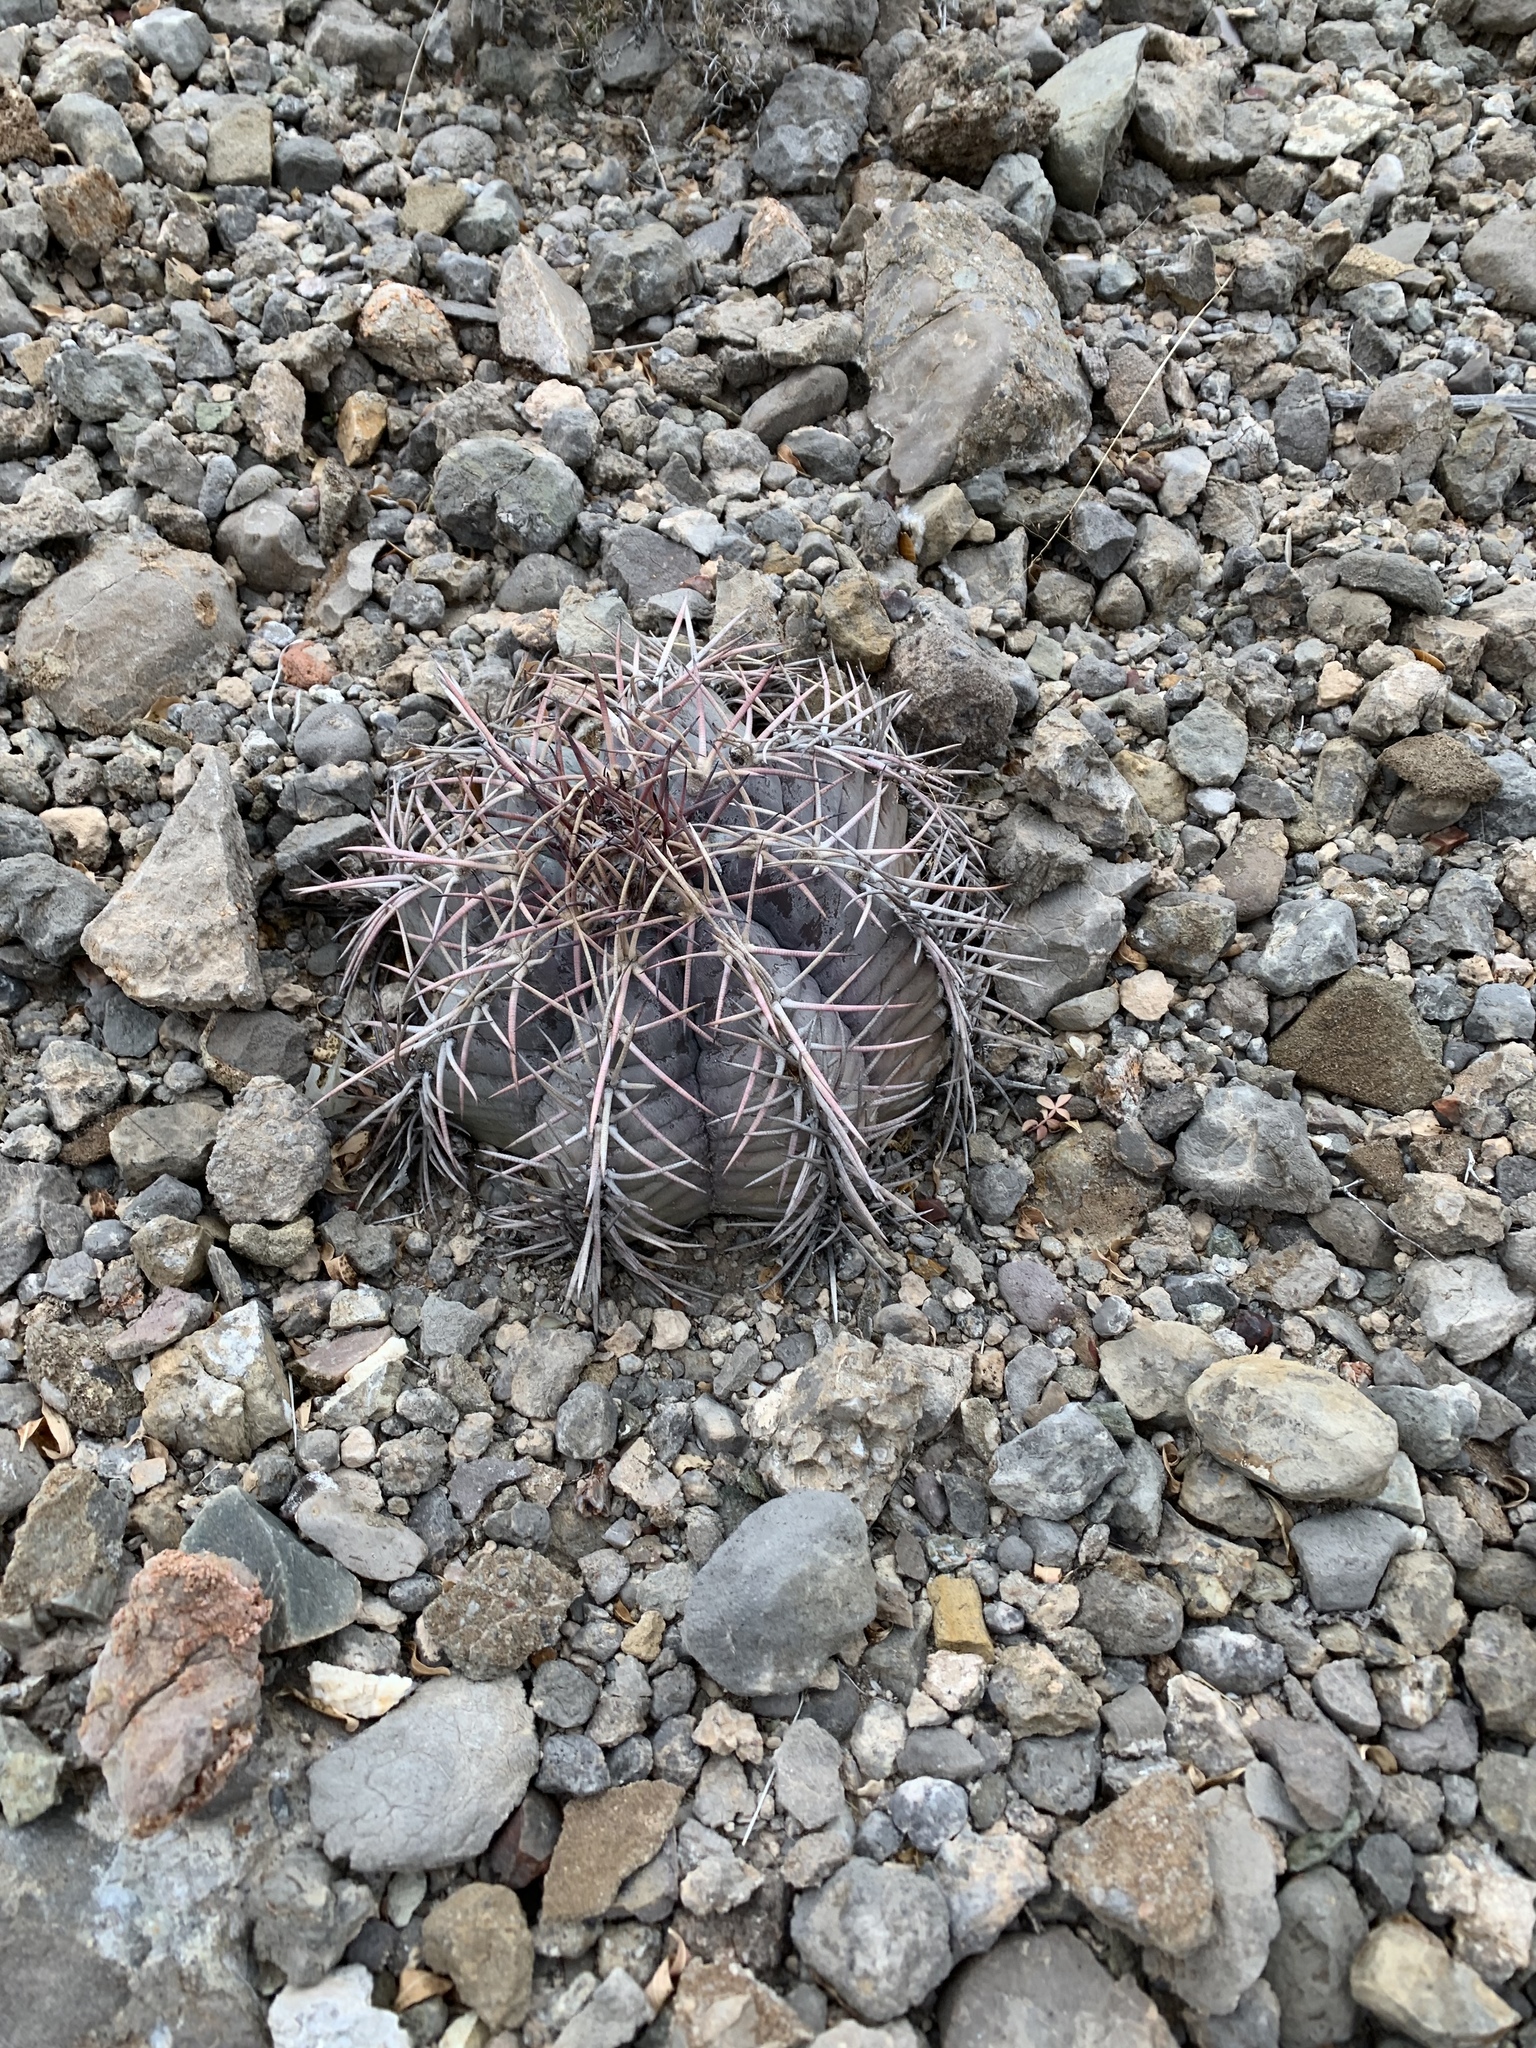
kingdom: Plantae
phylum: Tracheophyta
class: Magnoliopsida
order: Caryophyllales
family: Cactaceae
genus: Echinocactus
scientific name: Echinocactus horizonthalonius
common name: Devilshead
